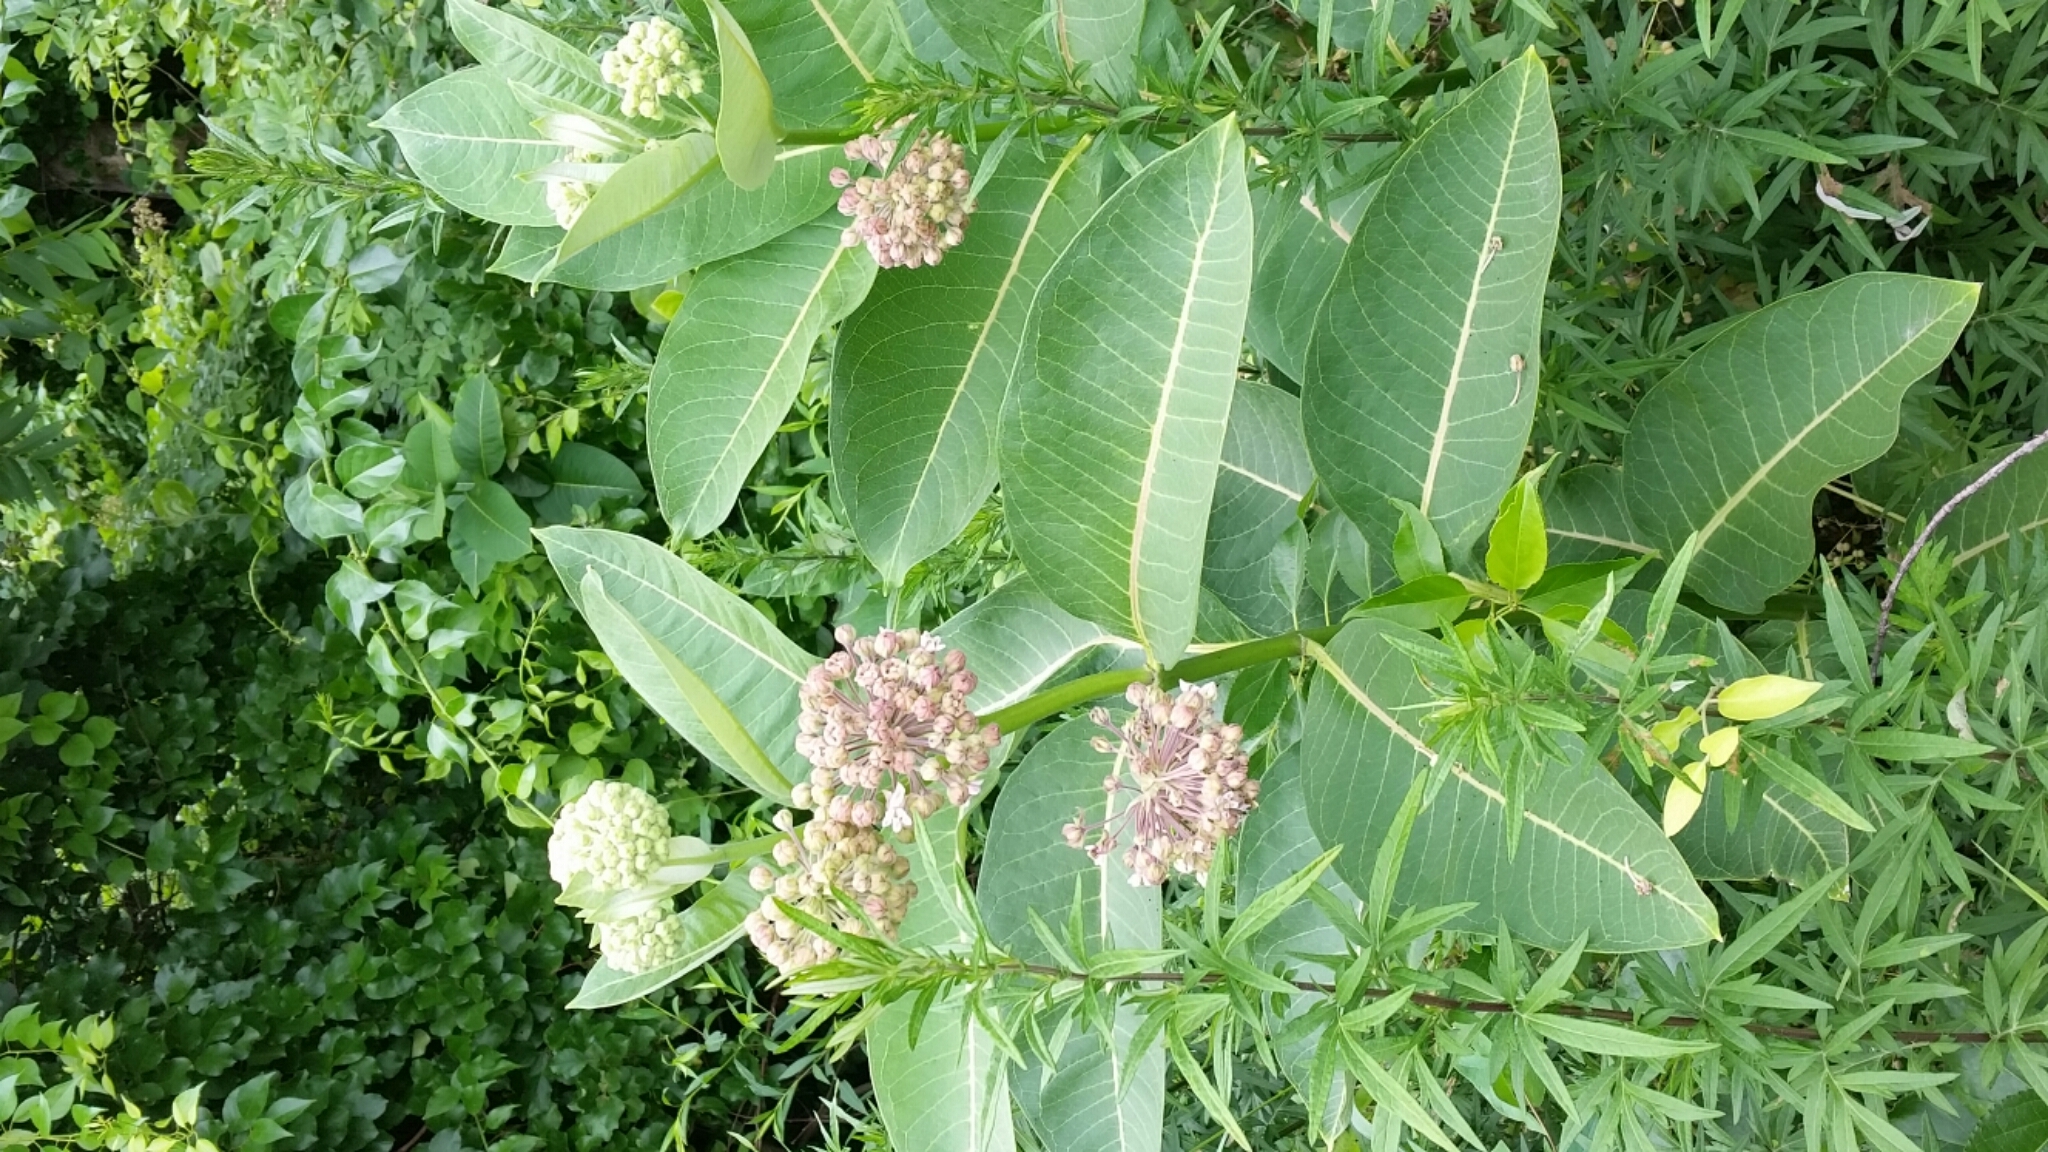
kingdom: Plantae
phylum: Tracheophyta
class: Magnoliopsida
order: Gentianales
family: Apocynaceae
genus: Asclepias
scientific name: Asclepias syriaca
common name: Common milkweed
